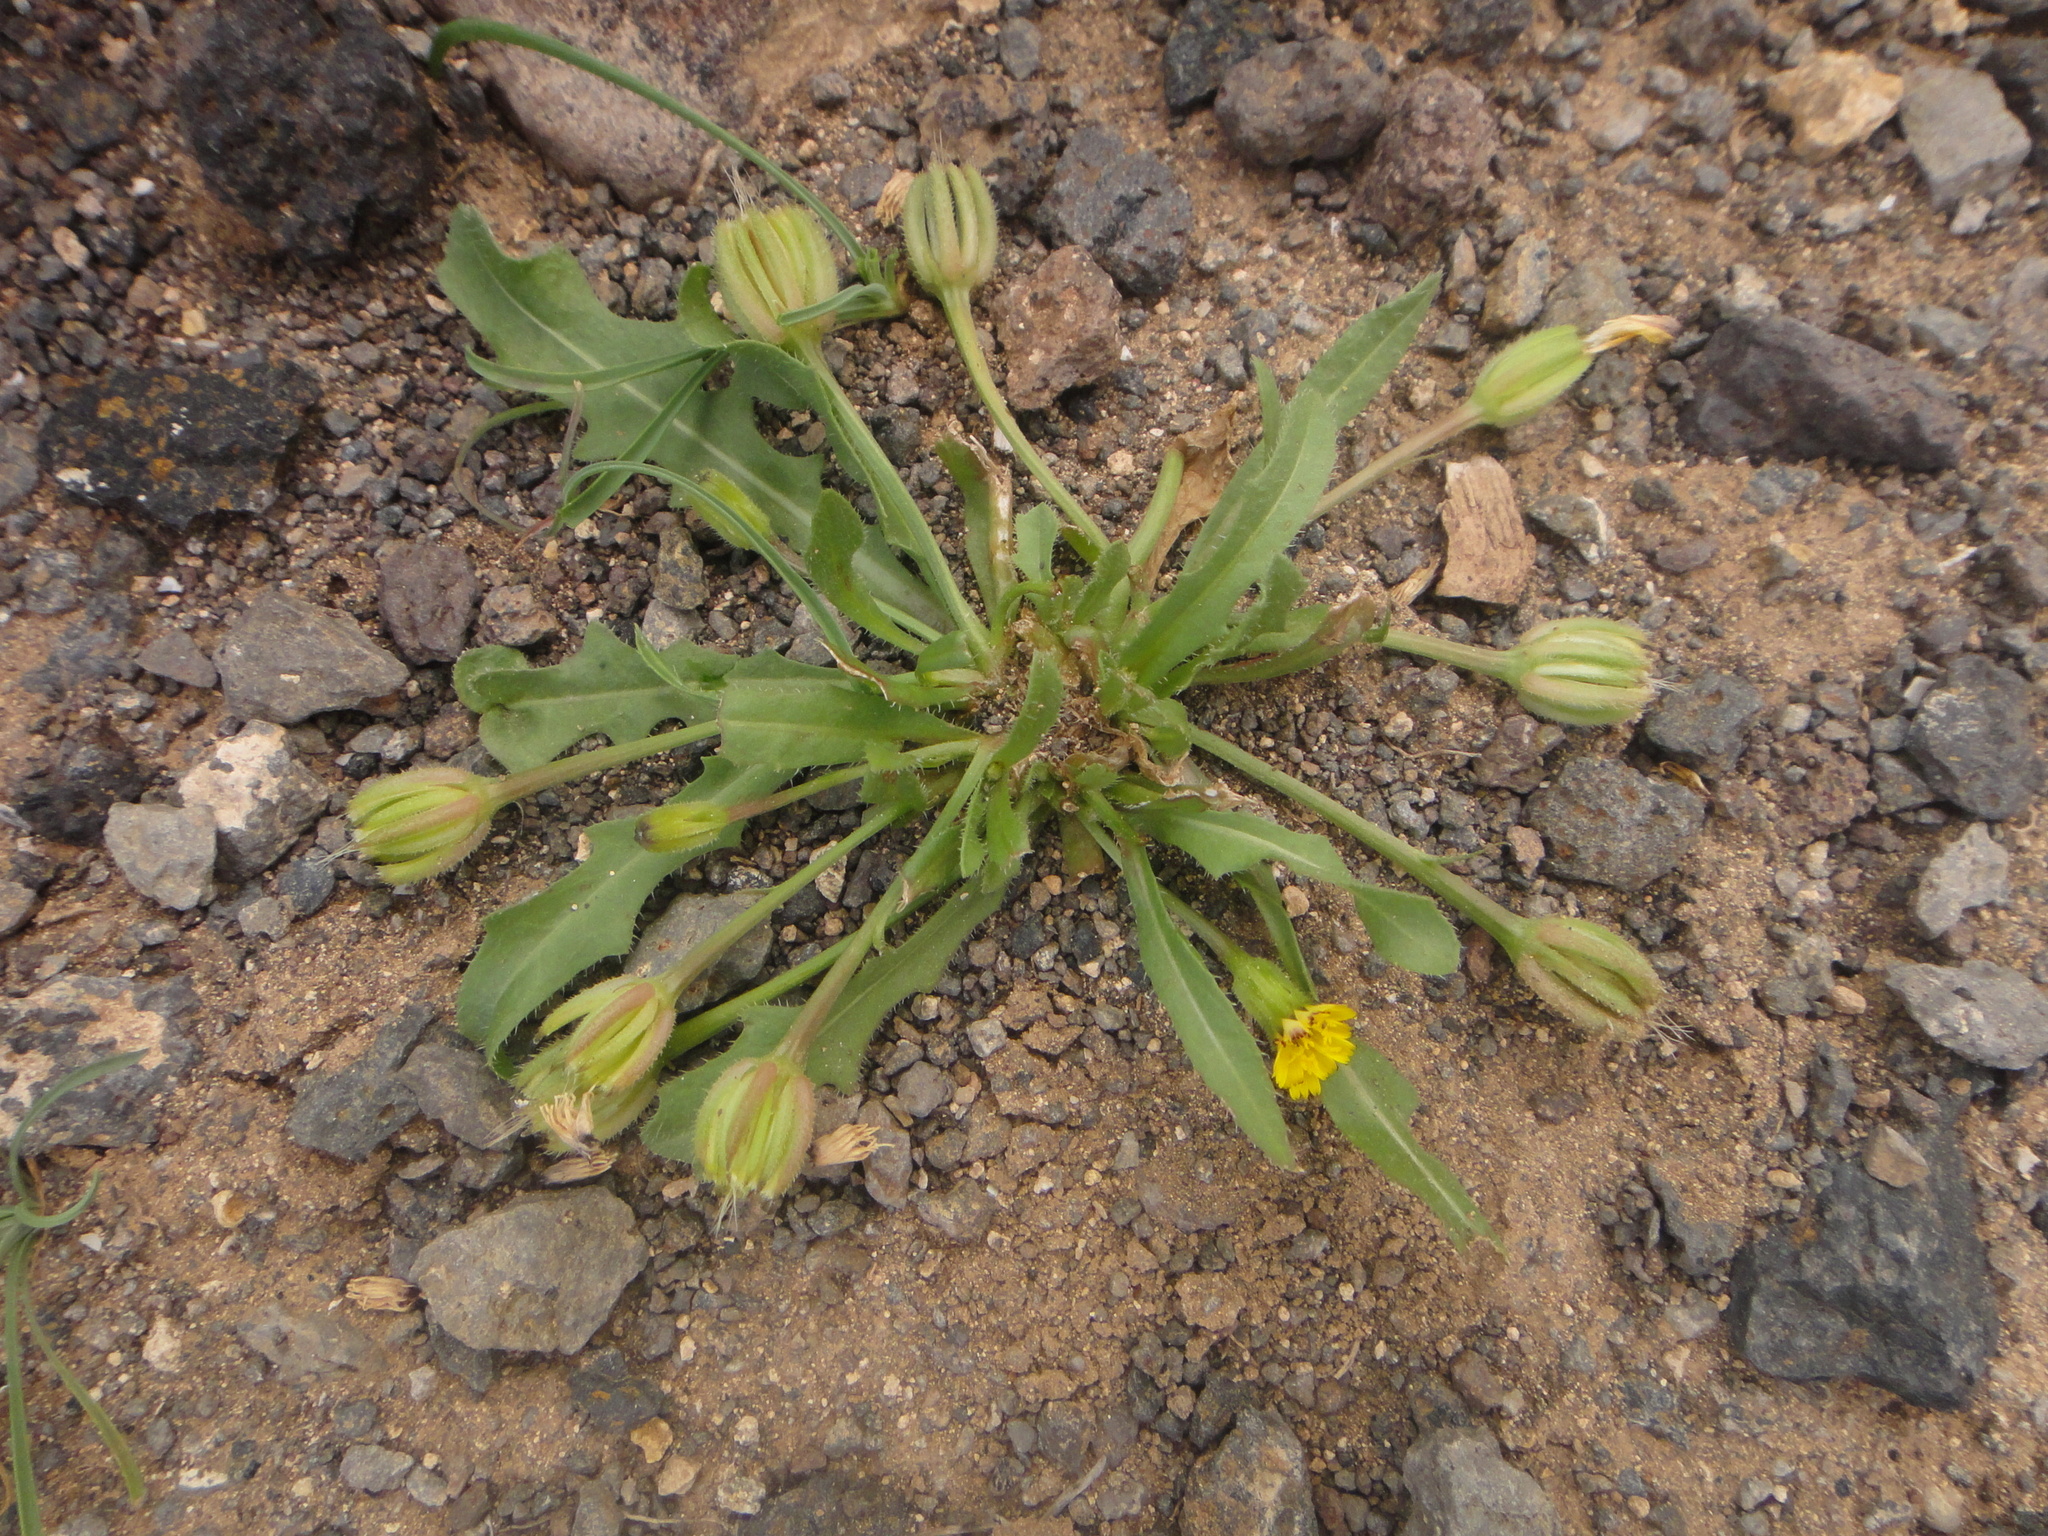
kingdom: Plantae
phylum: Tracheophyta
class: Magnoliopsida
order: Asterales
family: Asteraceae
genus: Hedypnois
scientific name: Hedypnois rhagadioloides
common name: Cretan weed
